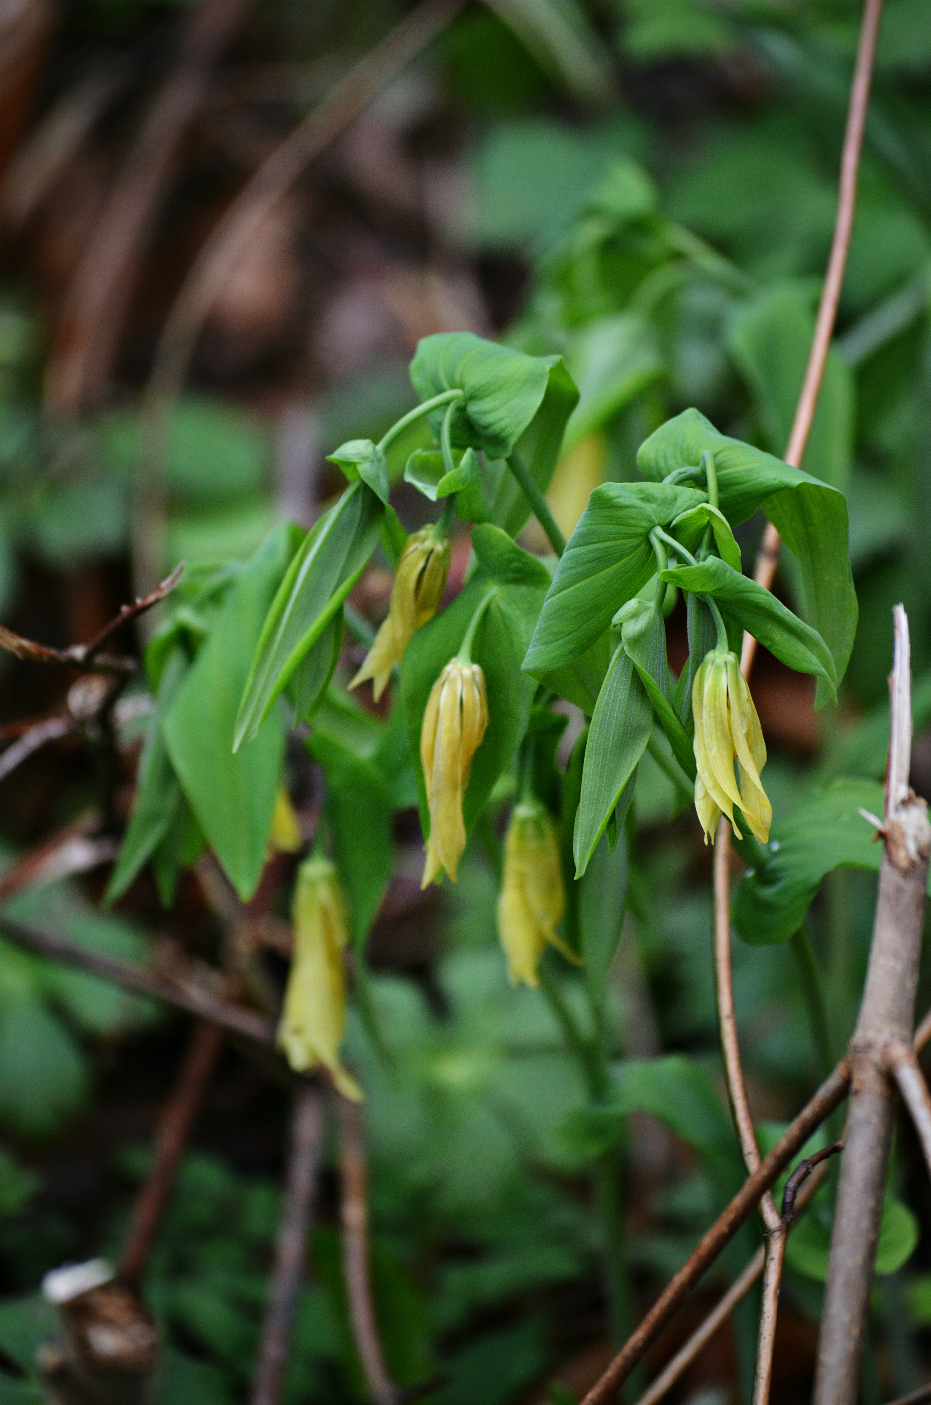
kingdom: Plantae
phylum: Tracheophyta
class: Liliopsida
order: Liliales
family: Colchicaceae
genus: Uvularia
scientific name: Uvularia grandiflora
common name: Bellwort
